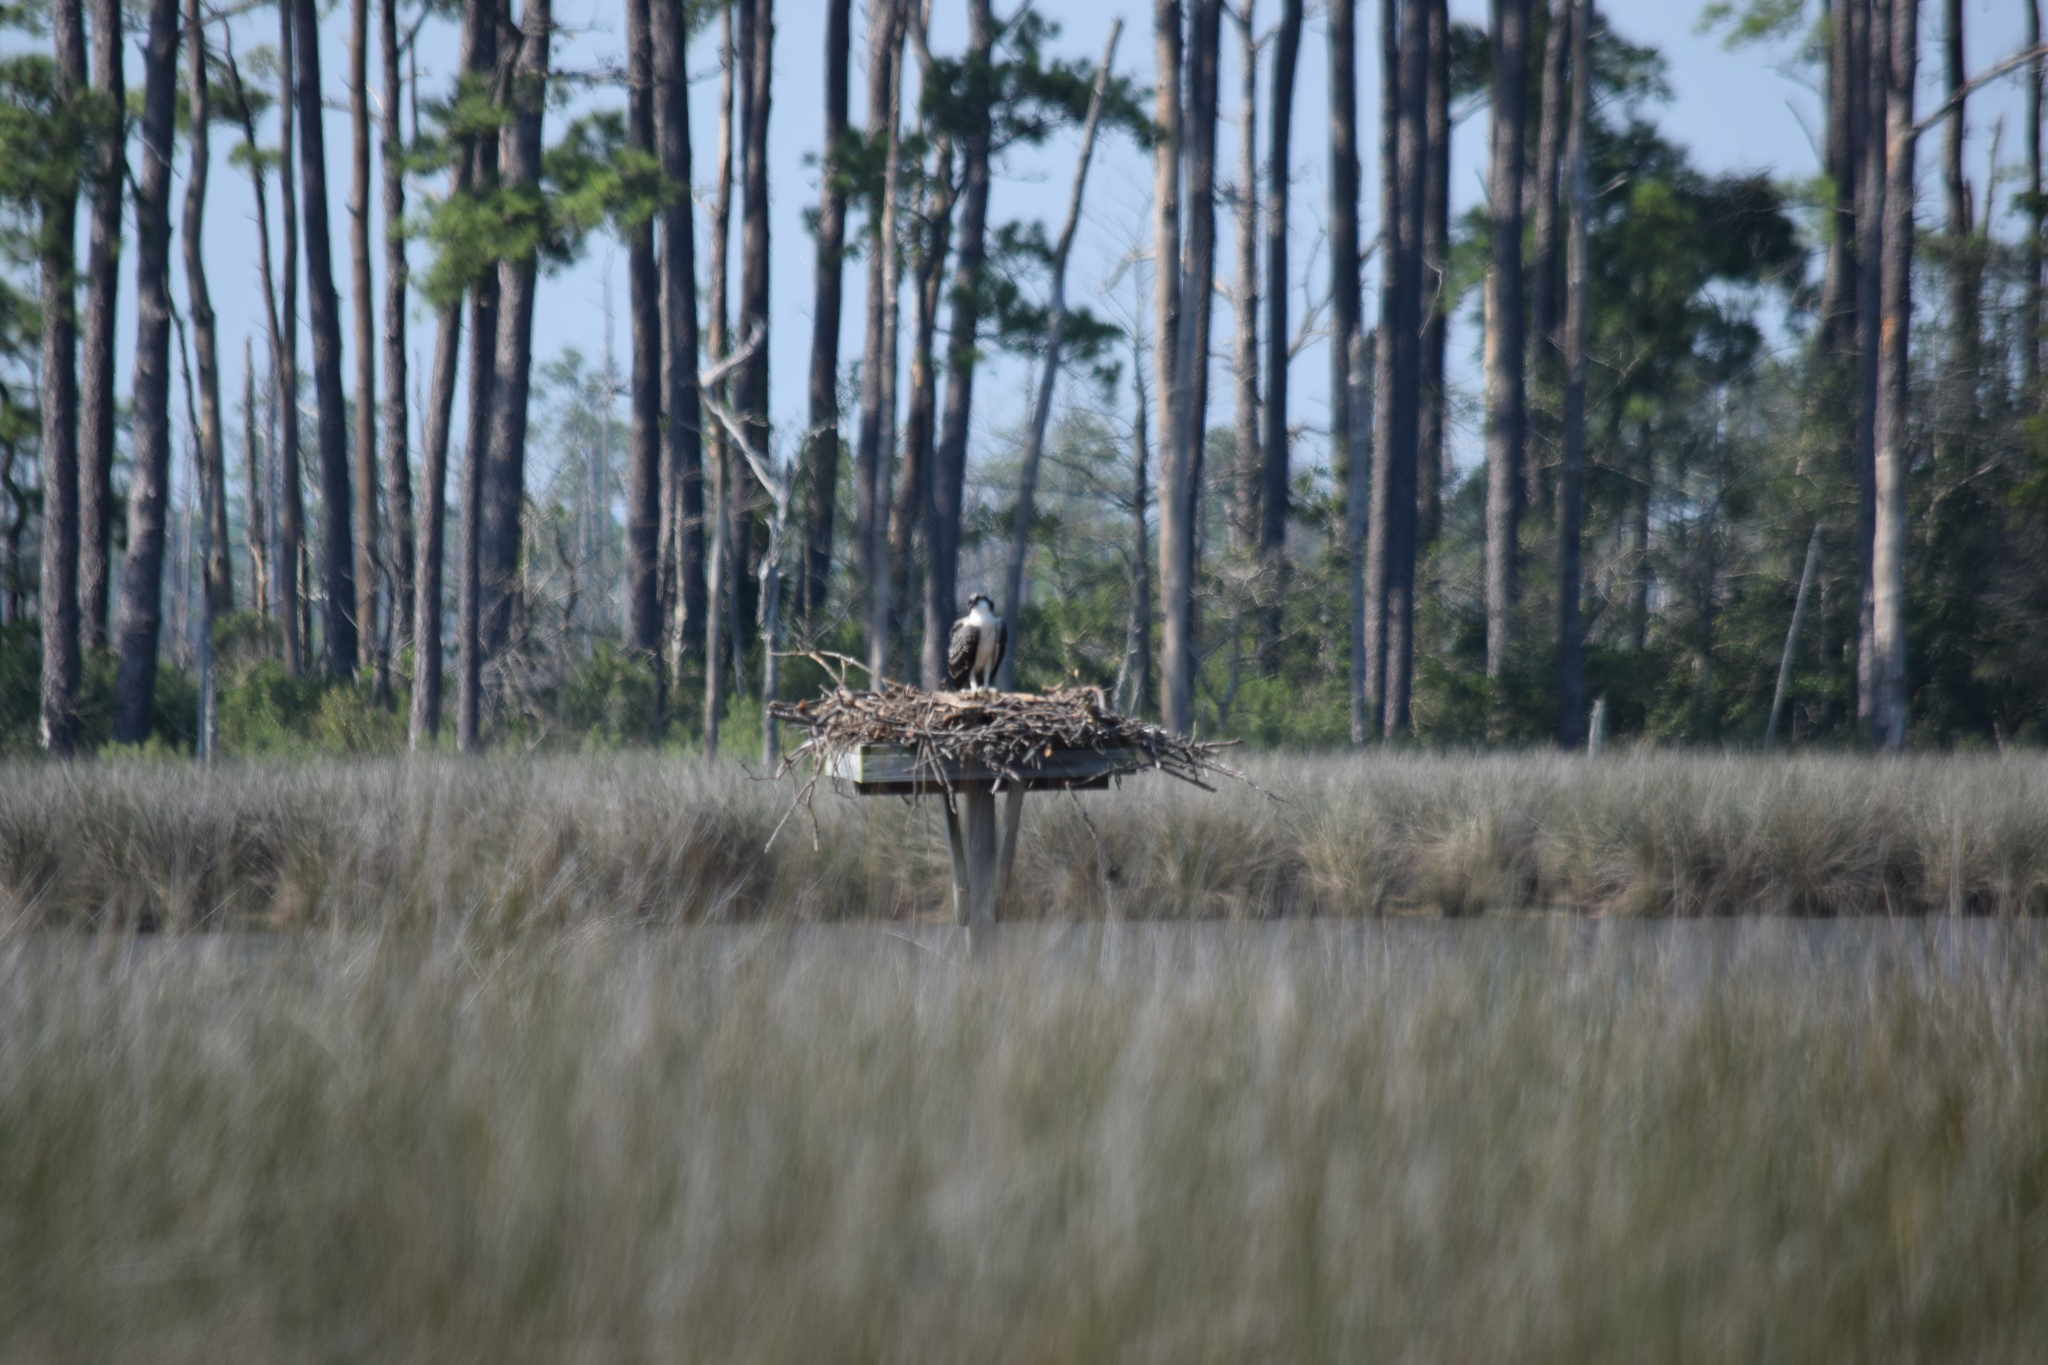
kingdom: Animalia
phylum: Chordata
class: Aves
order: Accipitriformes
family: Pandionidae
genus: Pandion
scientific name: Pandion haliaetus
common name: Osprey
